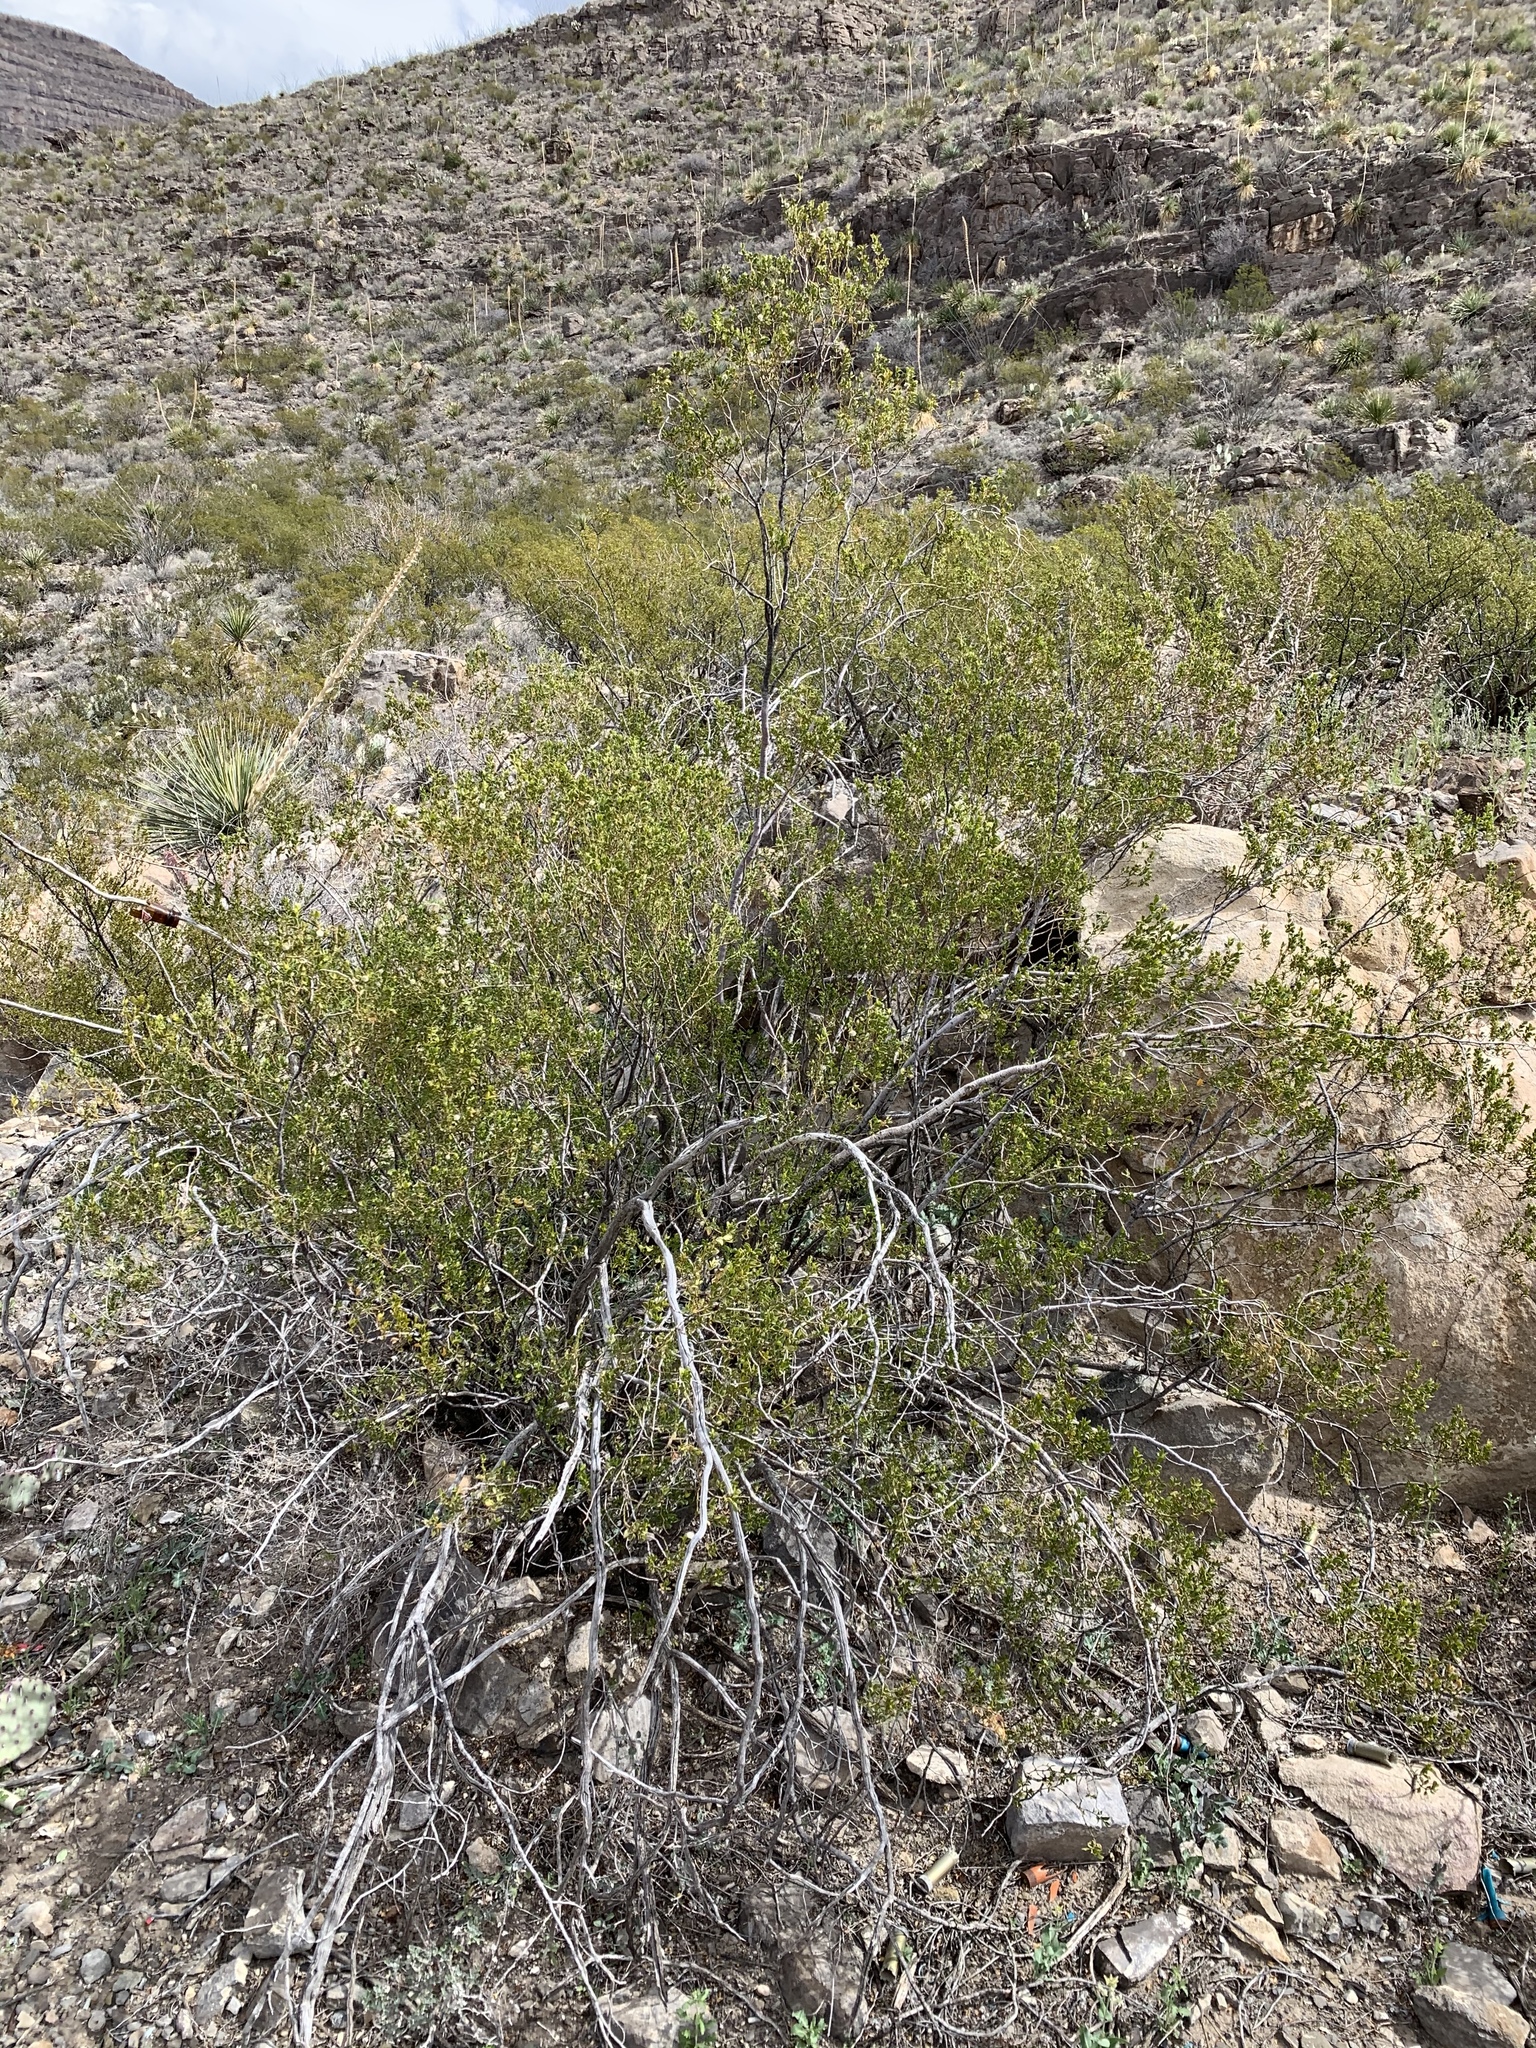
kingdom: Plantae
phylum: Tracheophyta
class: Magnoliopsida
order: Zygophyllales
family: Zygophyllaceae
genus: Larrea
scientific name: Larrea tridentata
